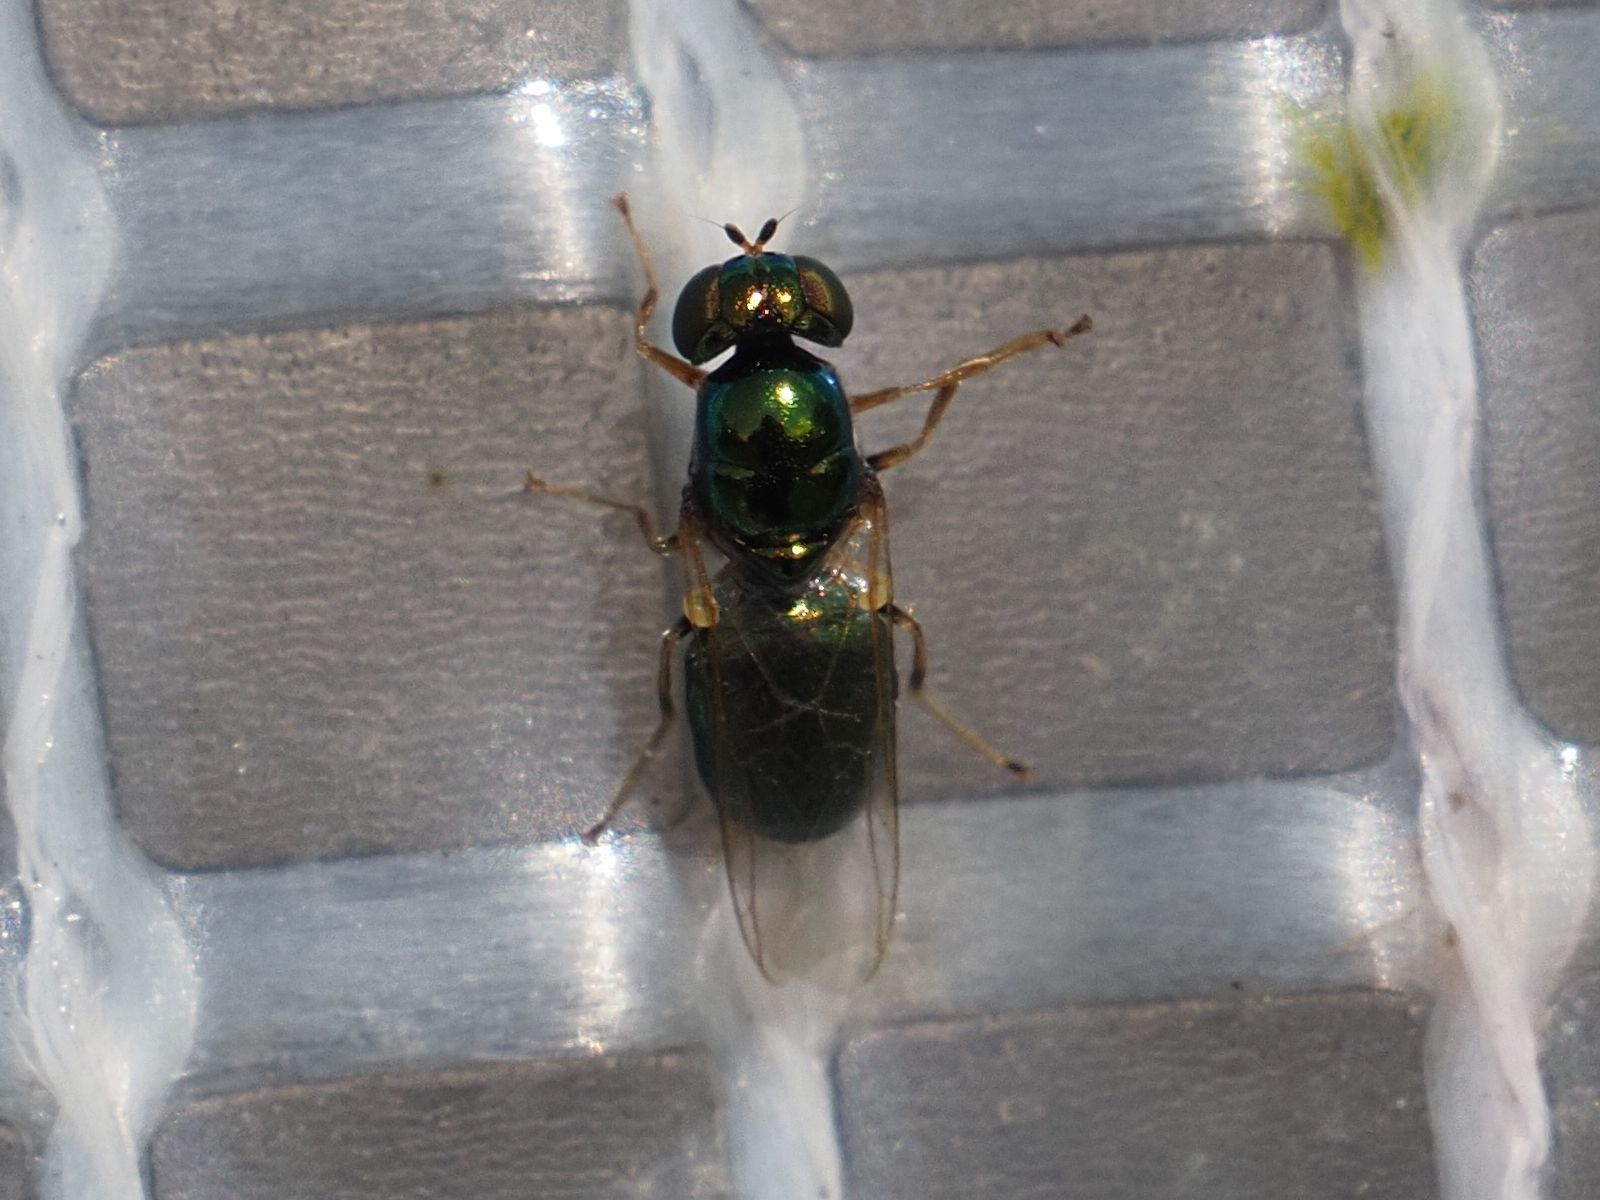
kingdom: Animalia
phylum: Arthropoda
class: Insecta
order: Diptera
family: Stratiomyidae
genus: Microchrysa
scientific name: Microchrysa polita
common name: Black-horned gem
